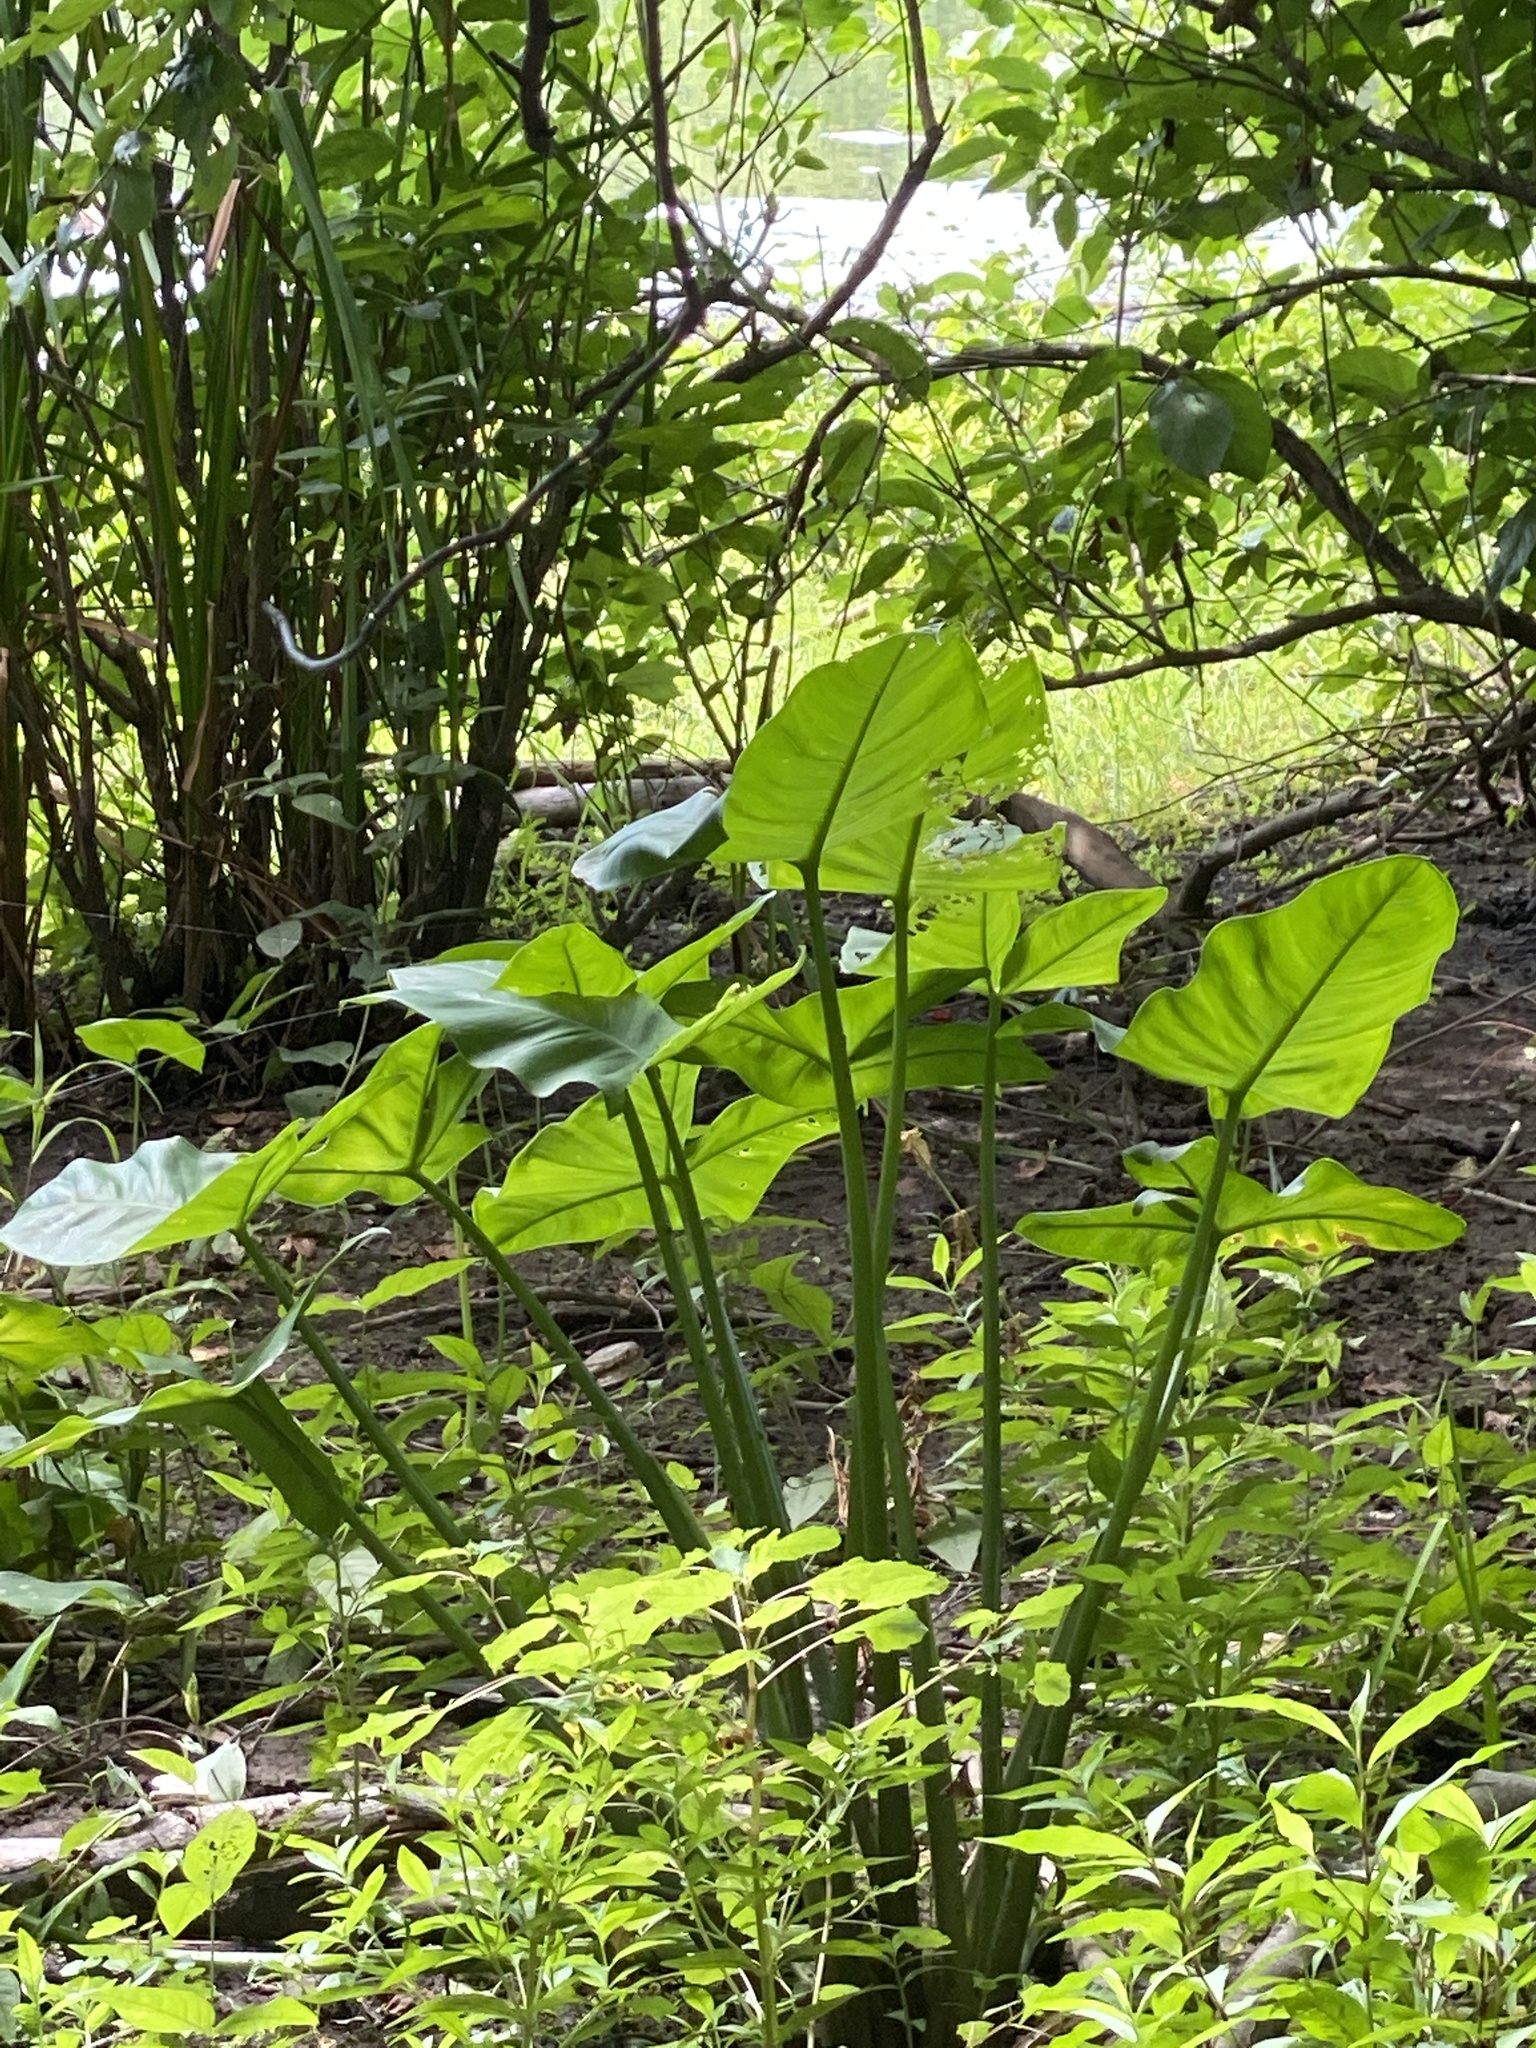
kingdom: Plantae
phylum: Tracheophyta
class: Liliopsida
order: Alismatales
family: Araceae
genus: Peltandra
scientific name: Peltandra virginica
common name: Arrow arum
